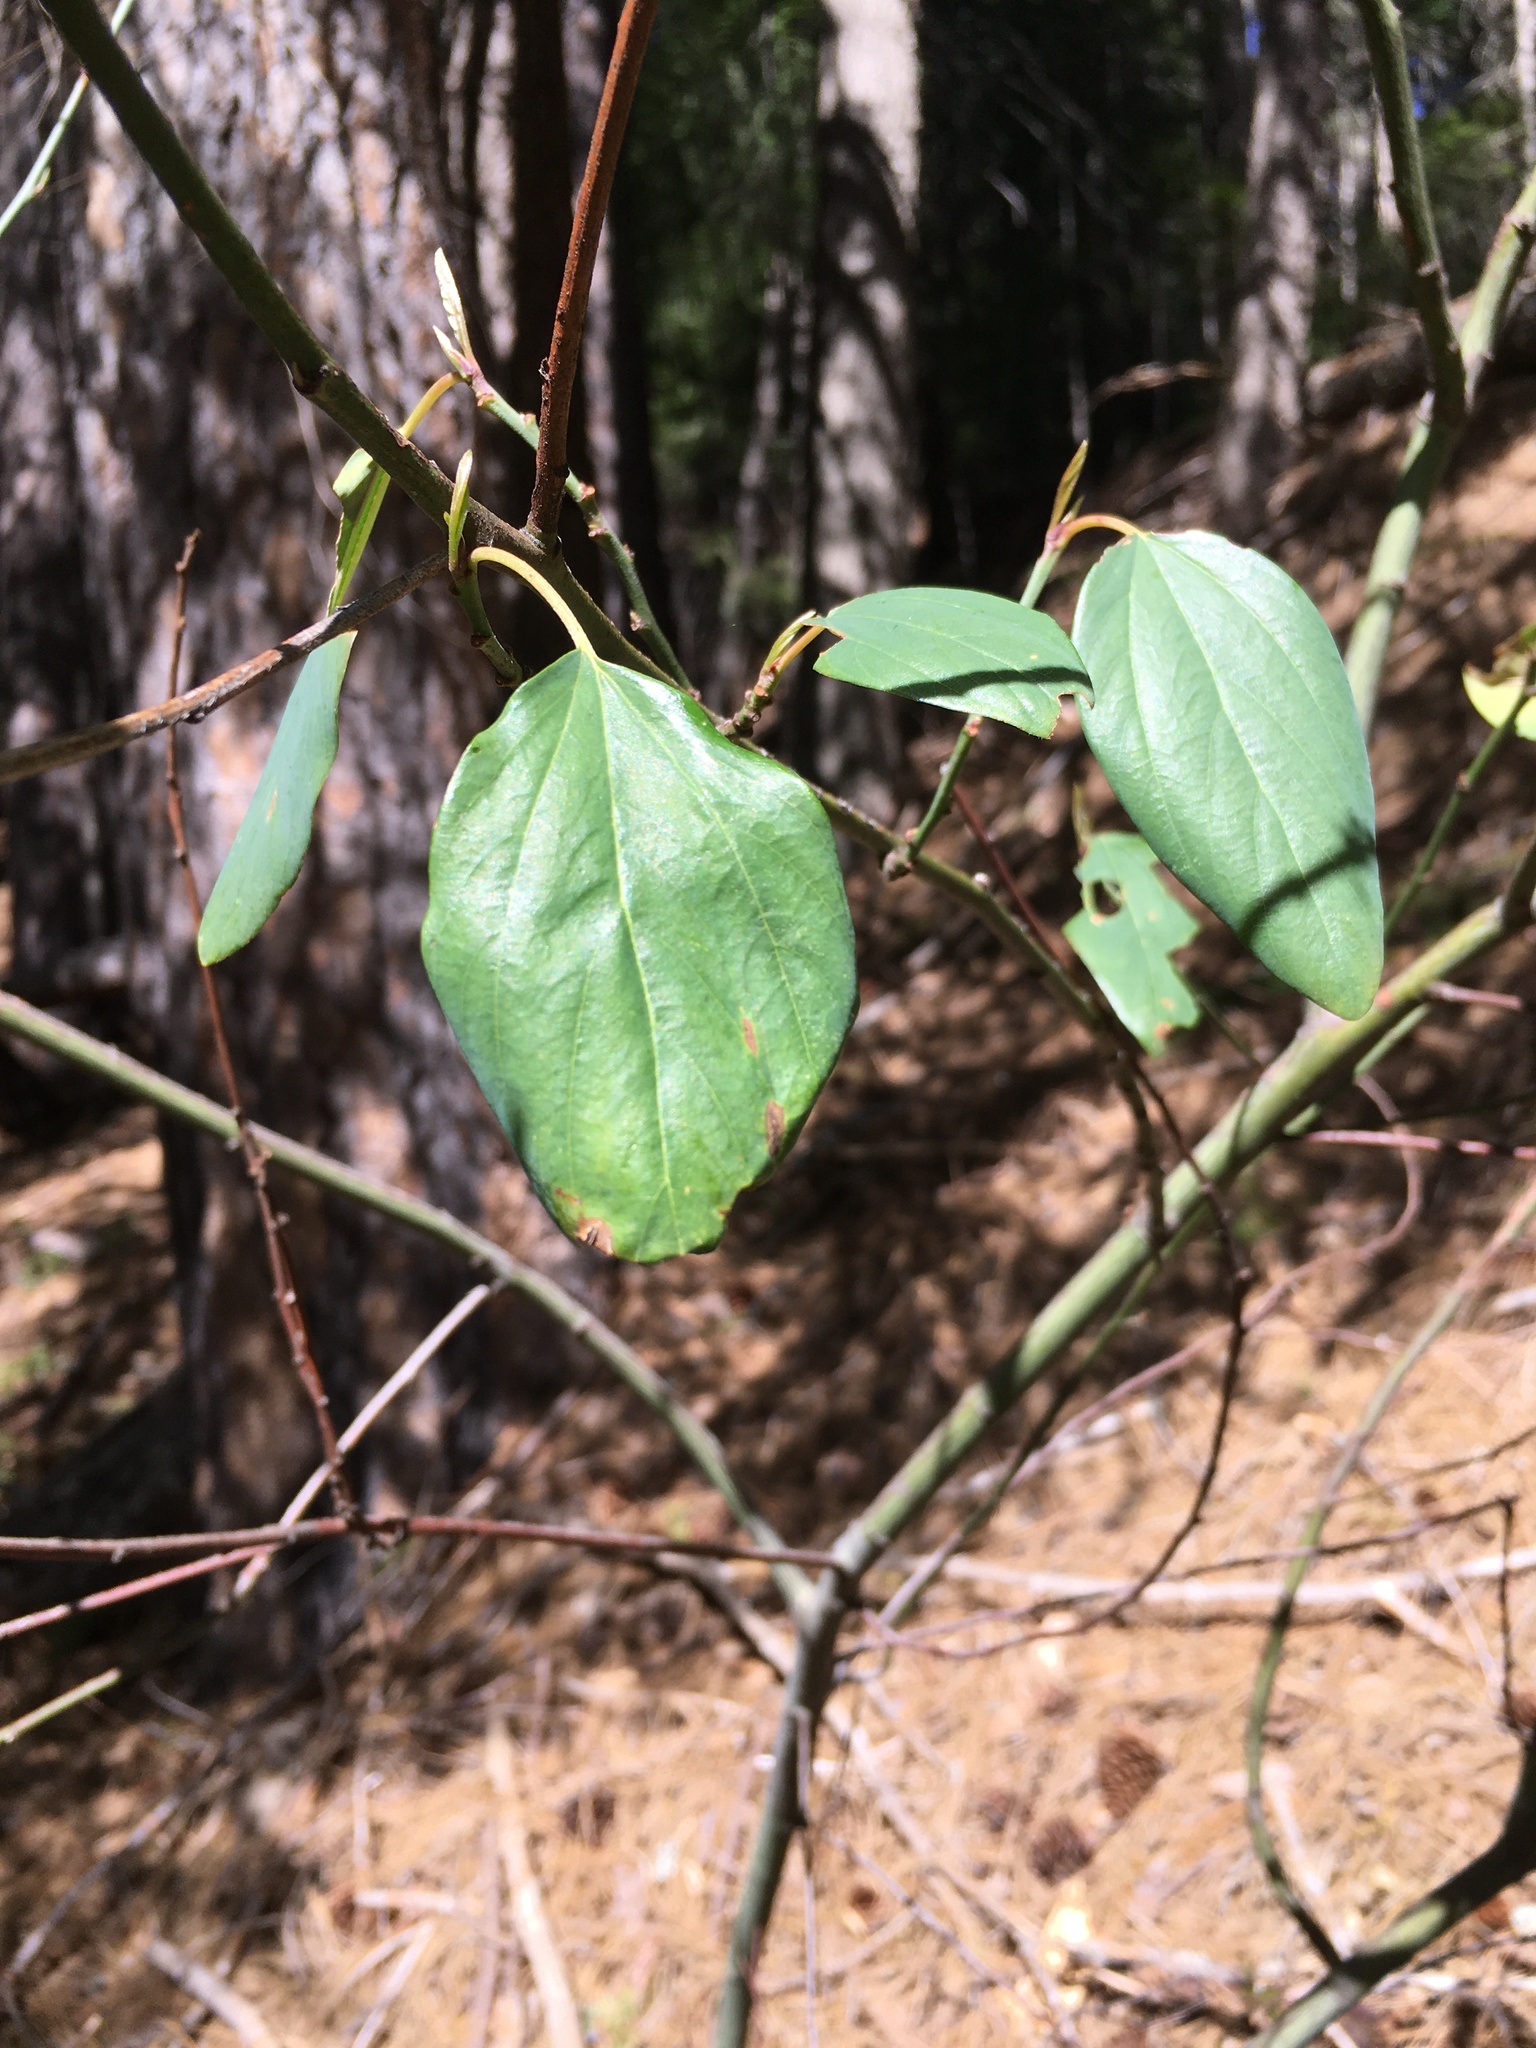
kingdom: Plantae
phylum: Tracheophyta
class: Magnoliopsida
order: Rosales
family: Rhamnaceae
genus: Ceanothus
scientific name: Ceanothus integerrimus
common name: Deerbrush ceanothus
